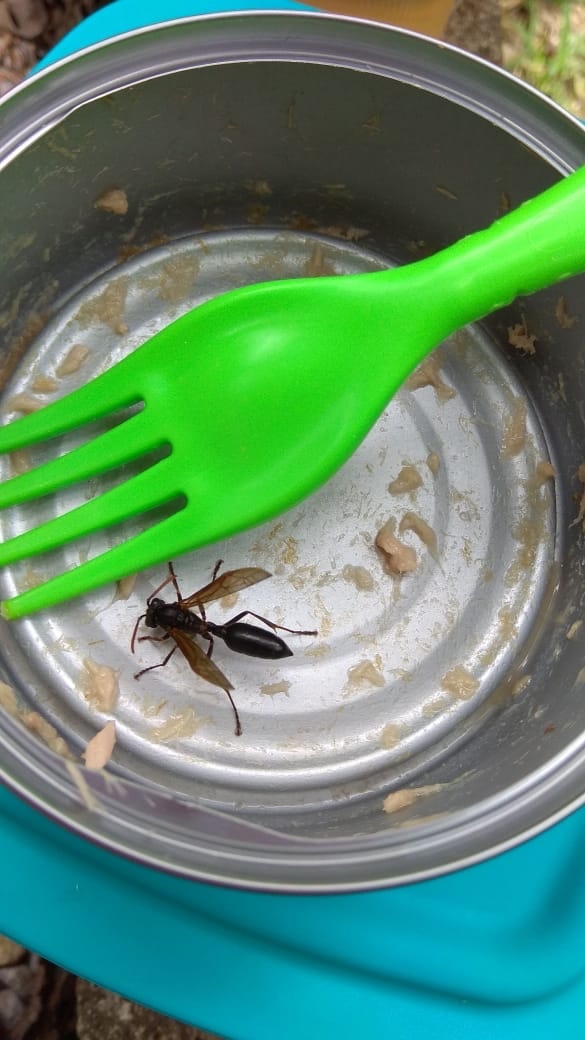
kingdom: Animalia
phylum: Arthropoda
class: Insecta
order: Hymenoptera
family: Vespidae
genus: Agelaia
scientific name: Agelaia panamensis
